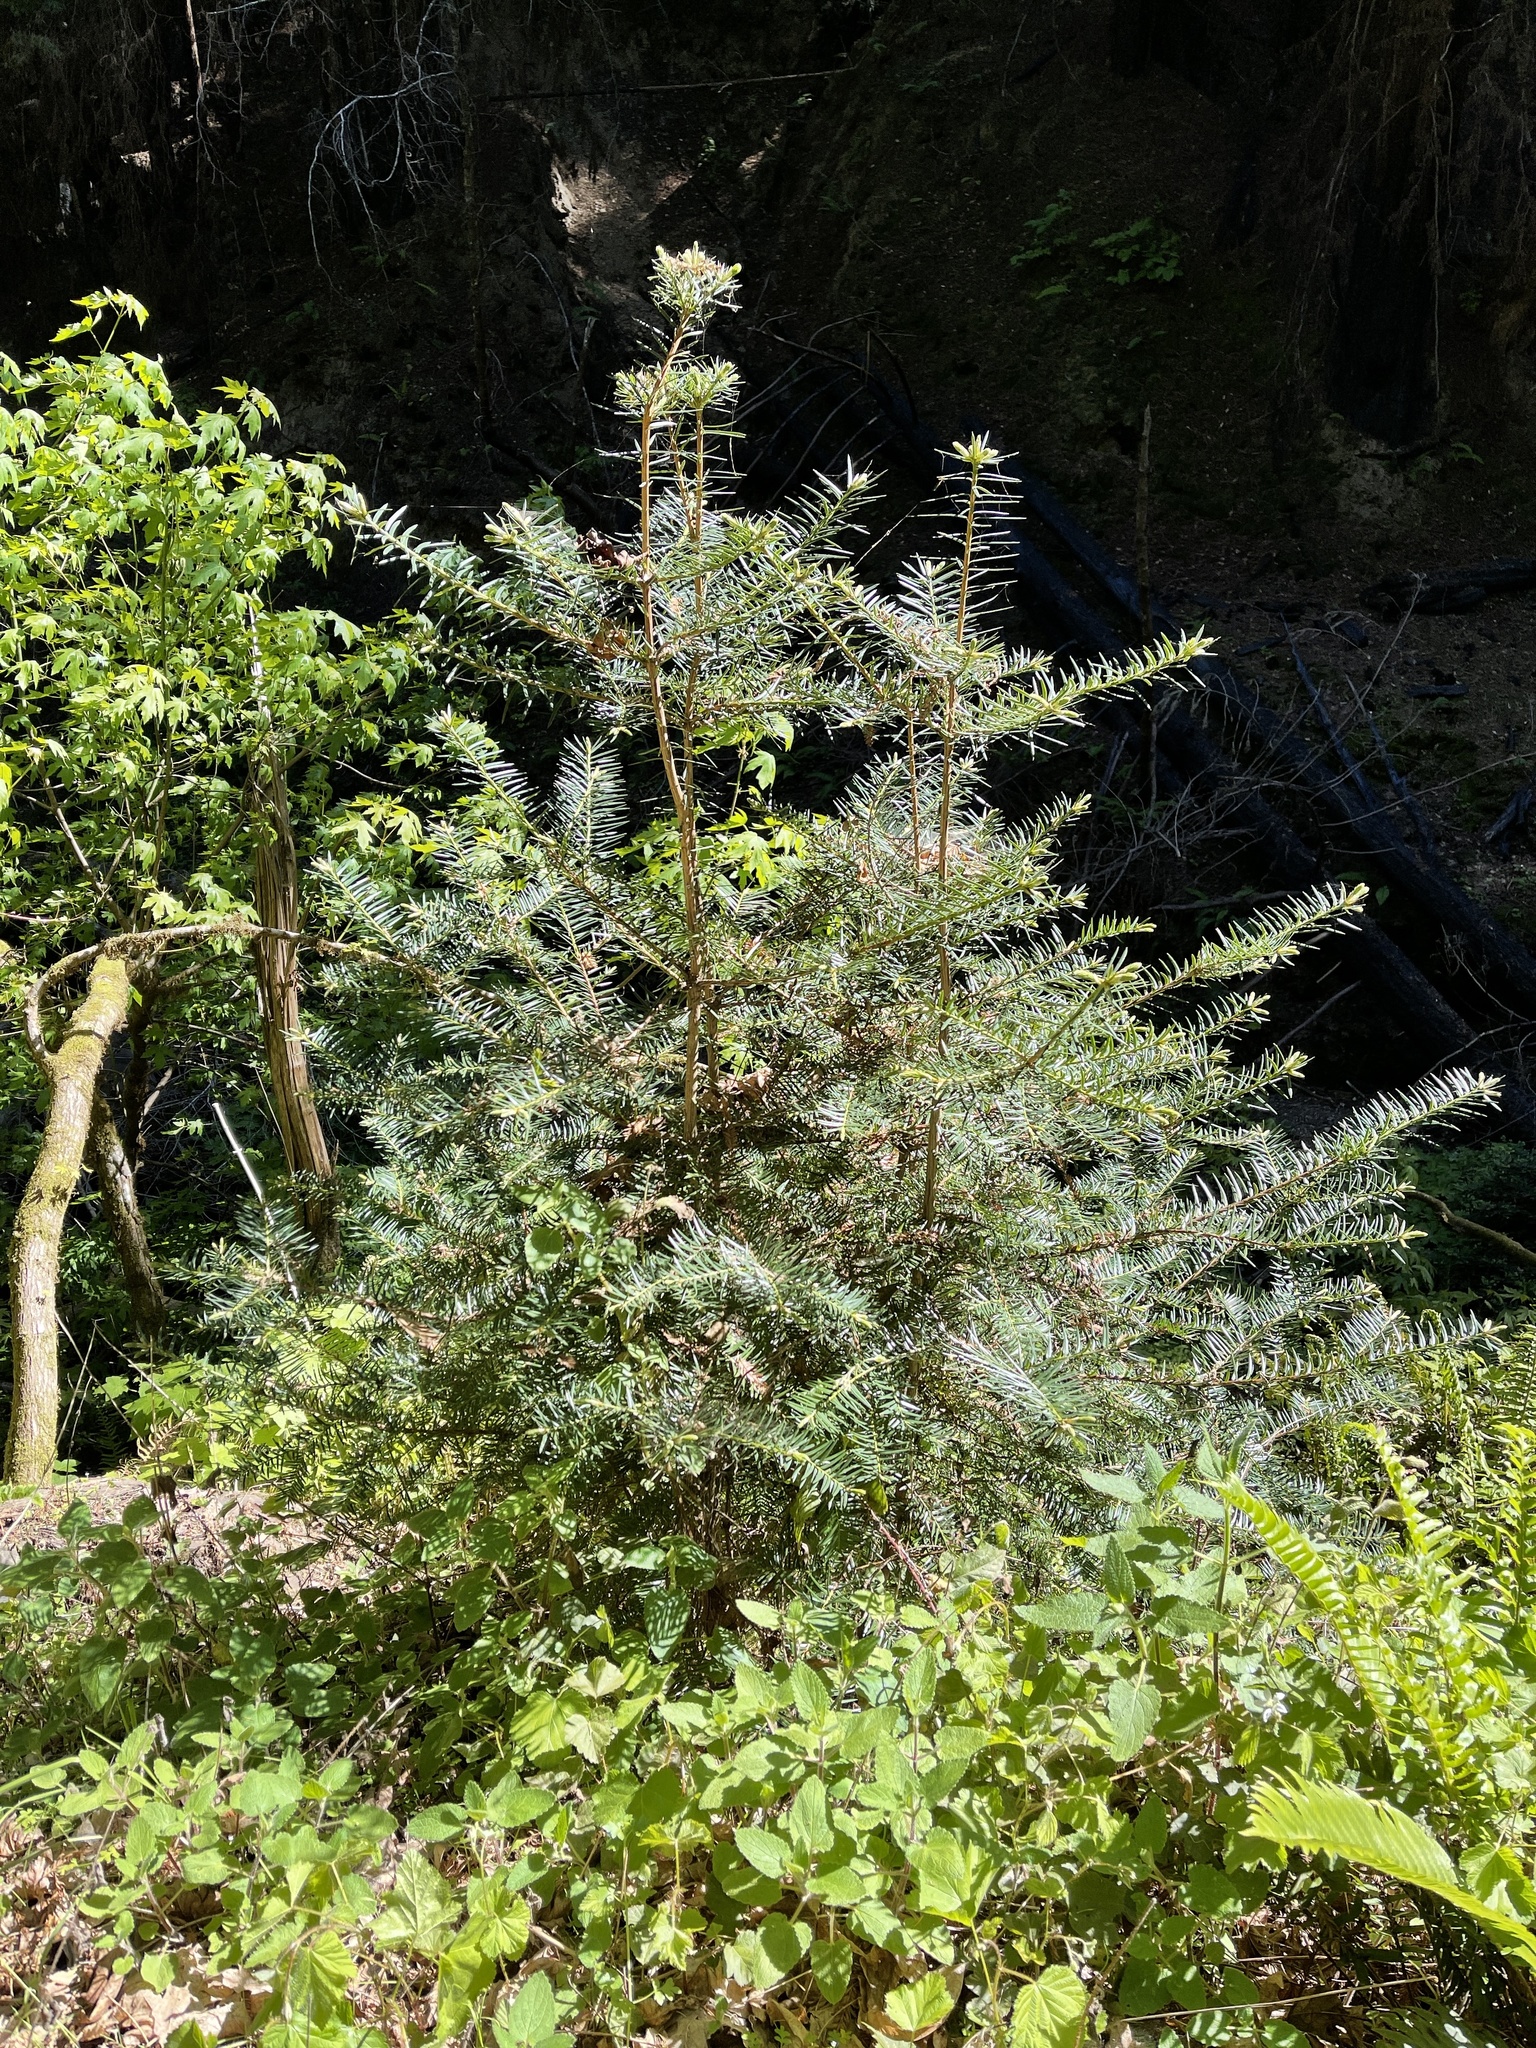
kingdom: Plantae
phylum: Tracheophyta
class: Pinopsida
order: Pinales
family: Taxaceae
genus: Torreya
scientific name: Torreya californica
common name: California torreya
